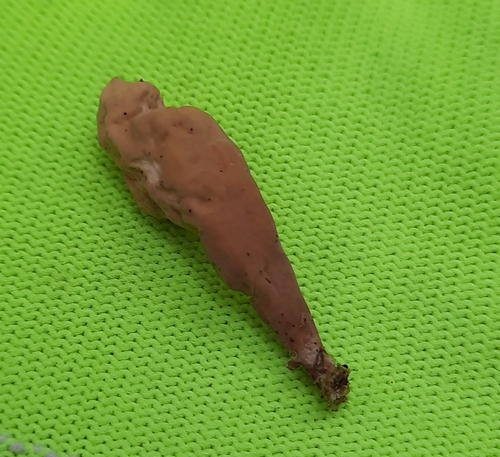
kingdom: Fungi
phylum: Basidiomycota
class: Agaricomycetes
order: Gomphales
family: Clavariadelphaceae
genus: Clavariadelphus
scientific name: Clavariadelphus
